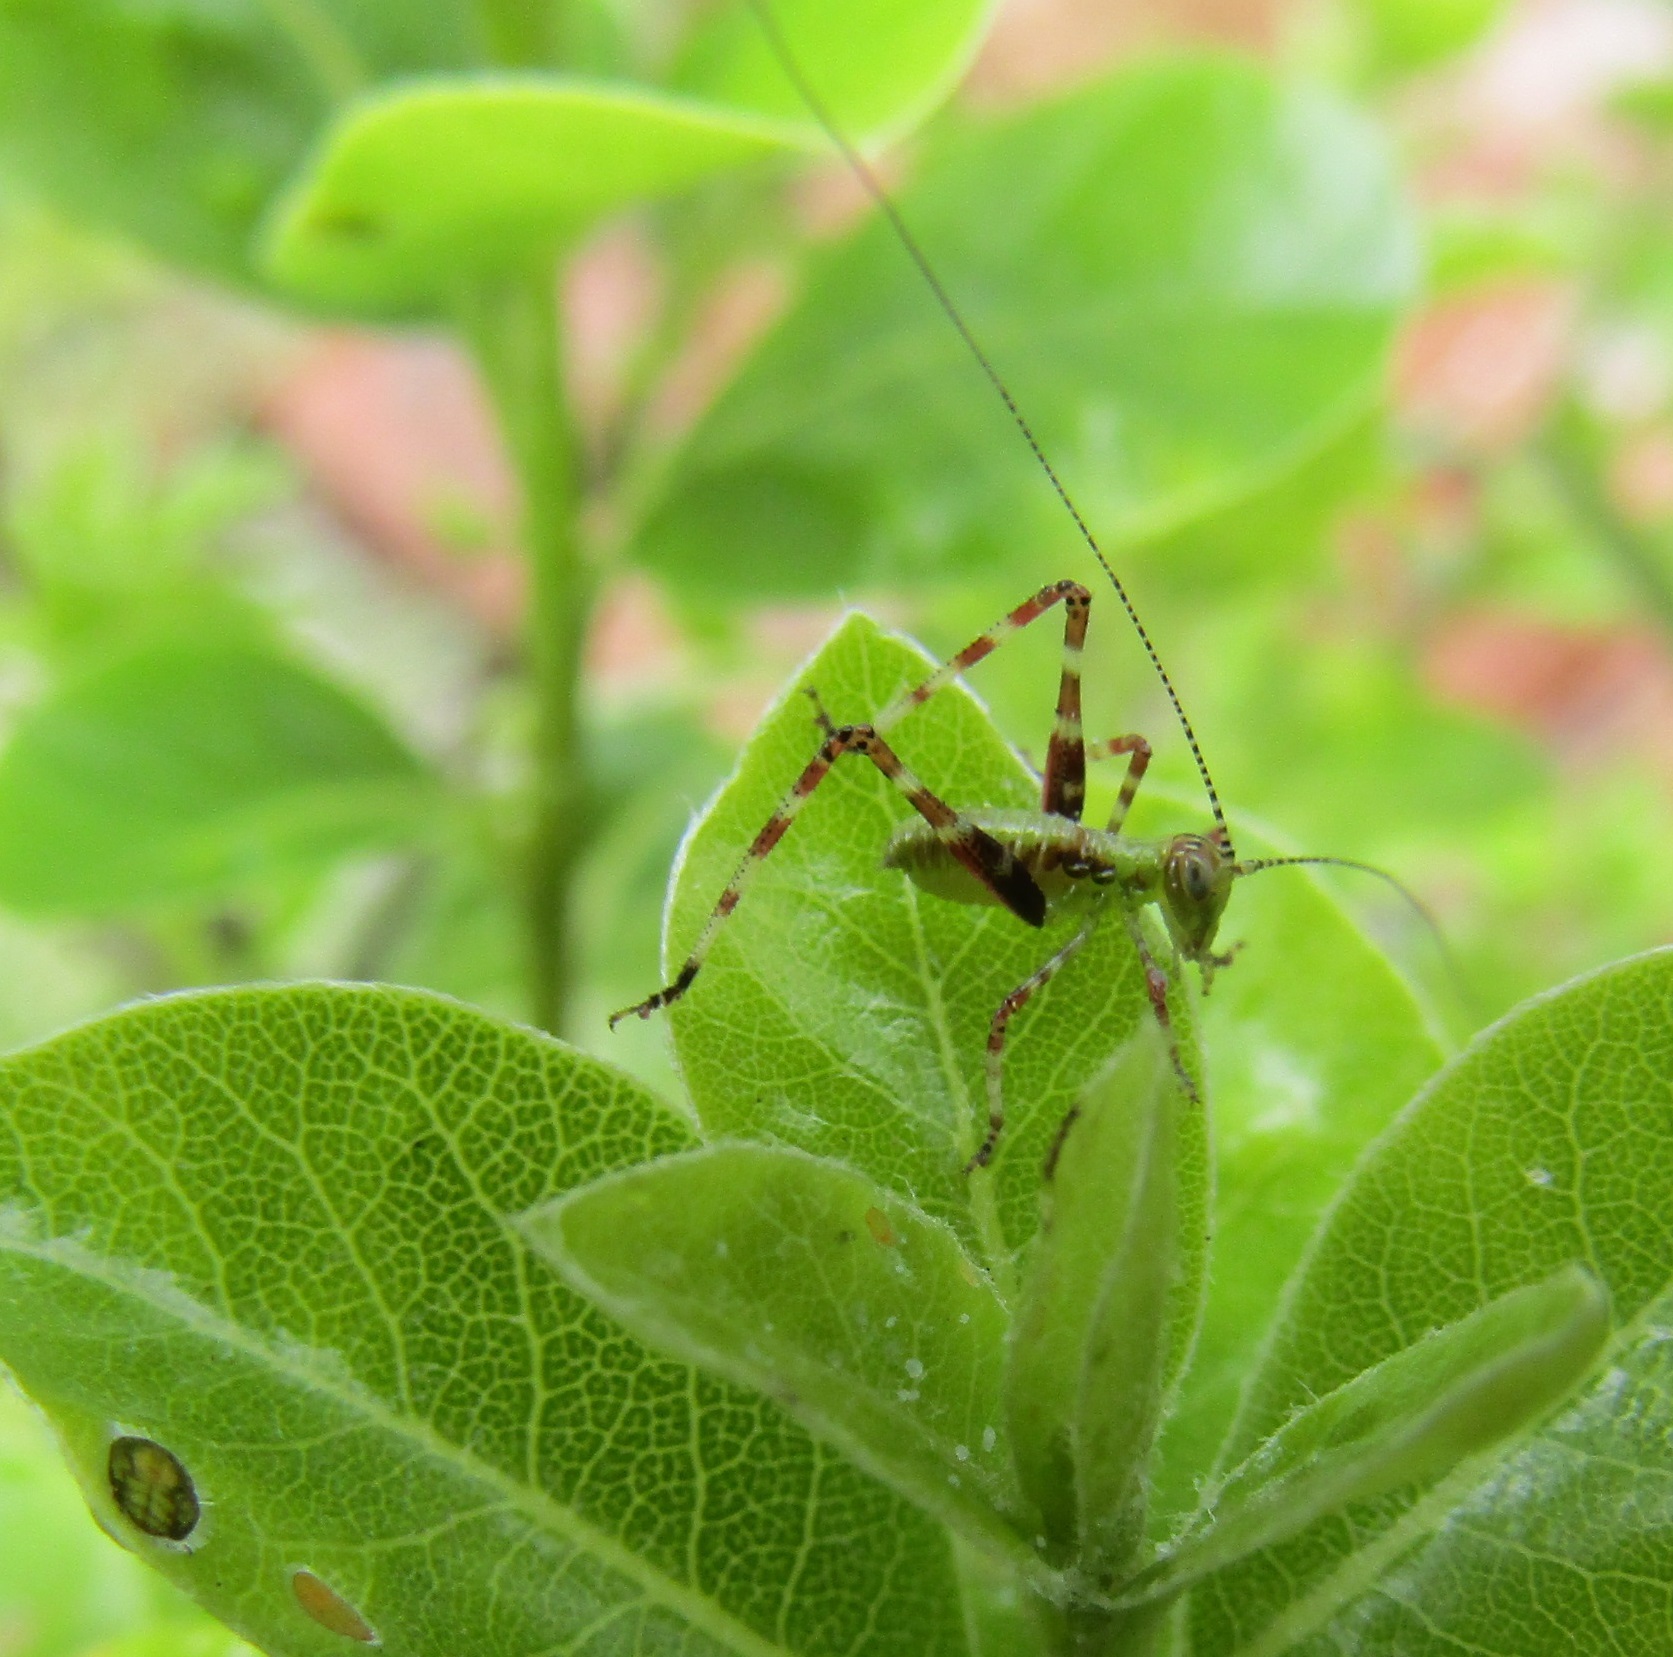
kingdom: Animalia
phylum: Arthropoda
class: Insecta
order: Orthoptera
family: Tettigoniidae
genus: Caedicia
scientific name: Caedicia simplex
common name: Common garden katydid
